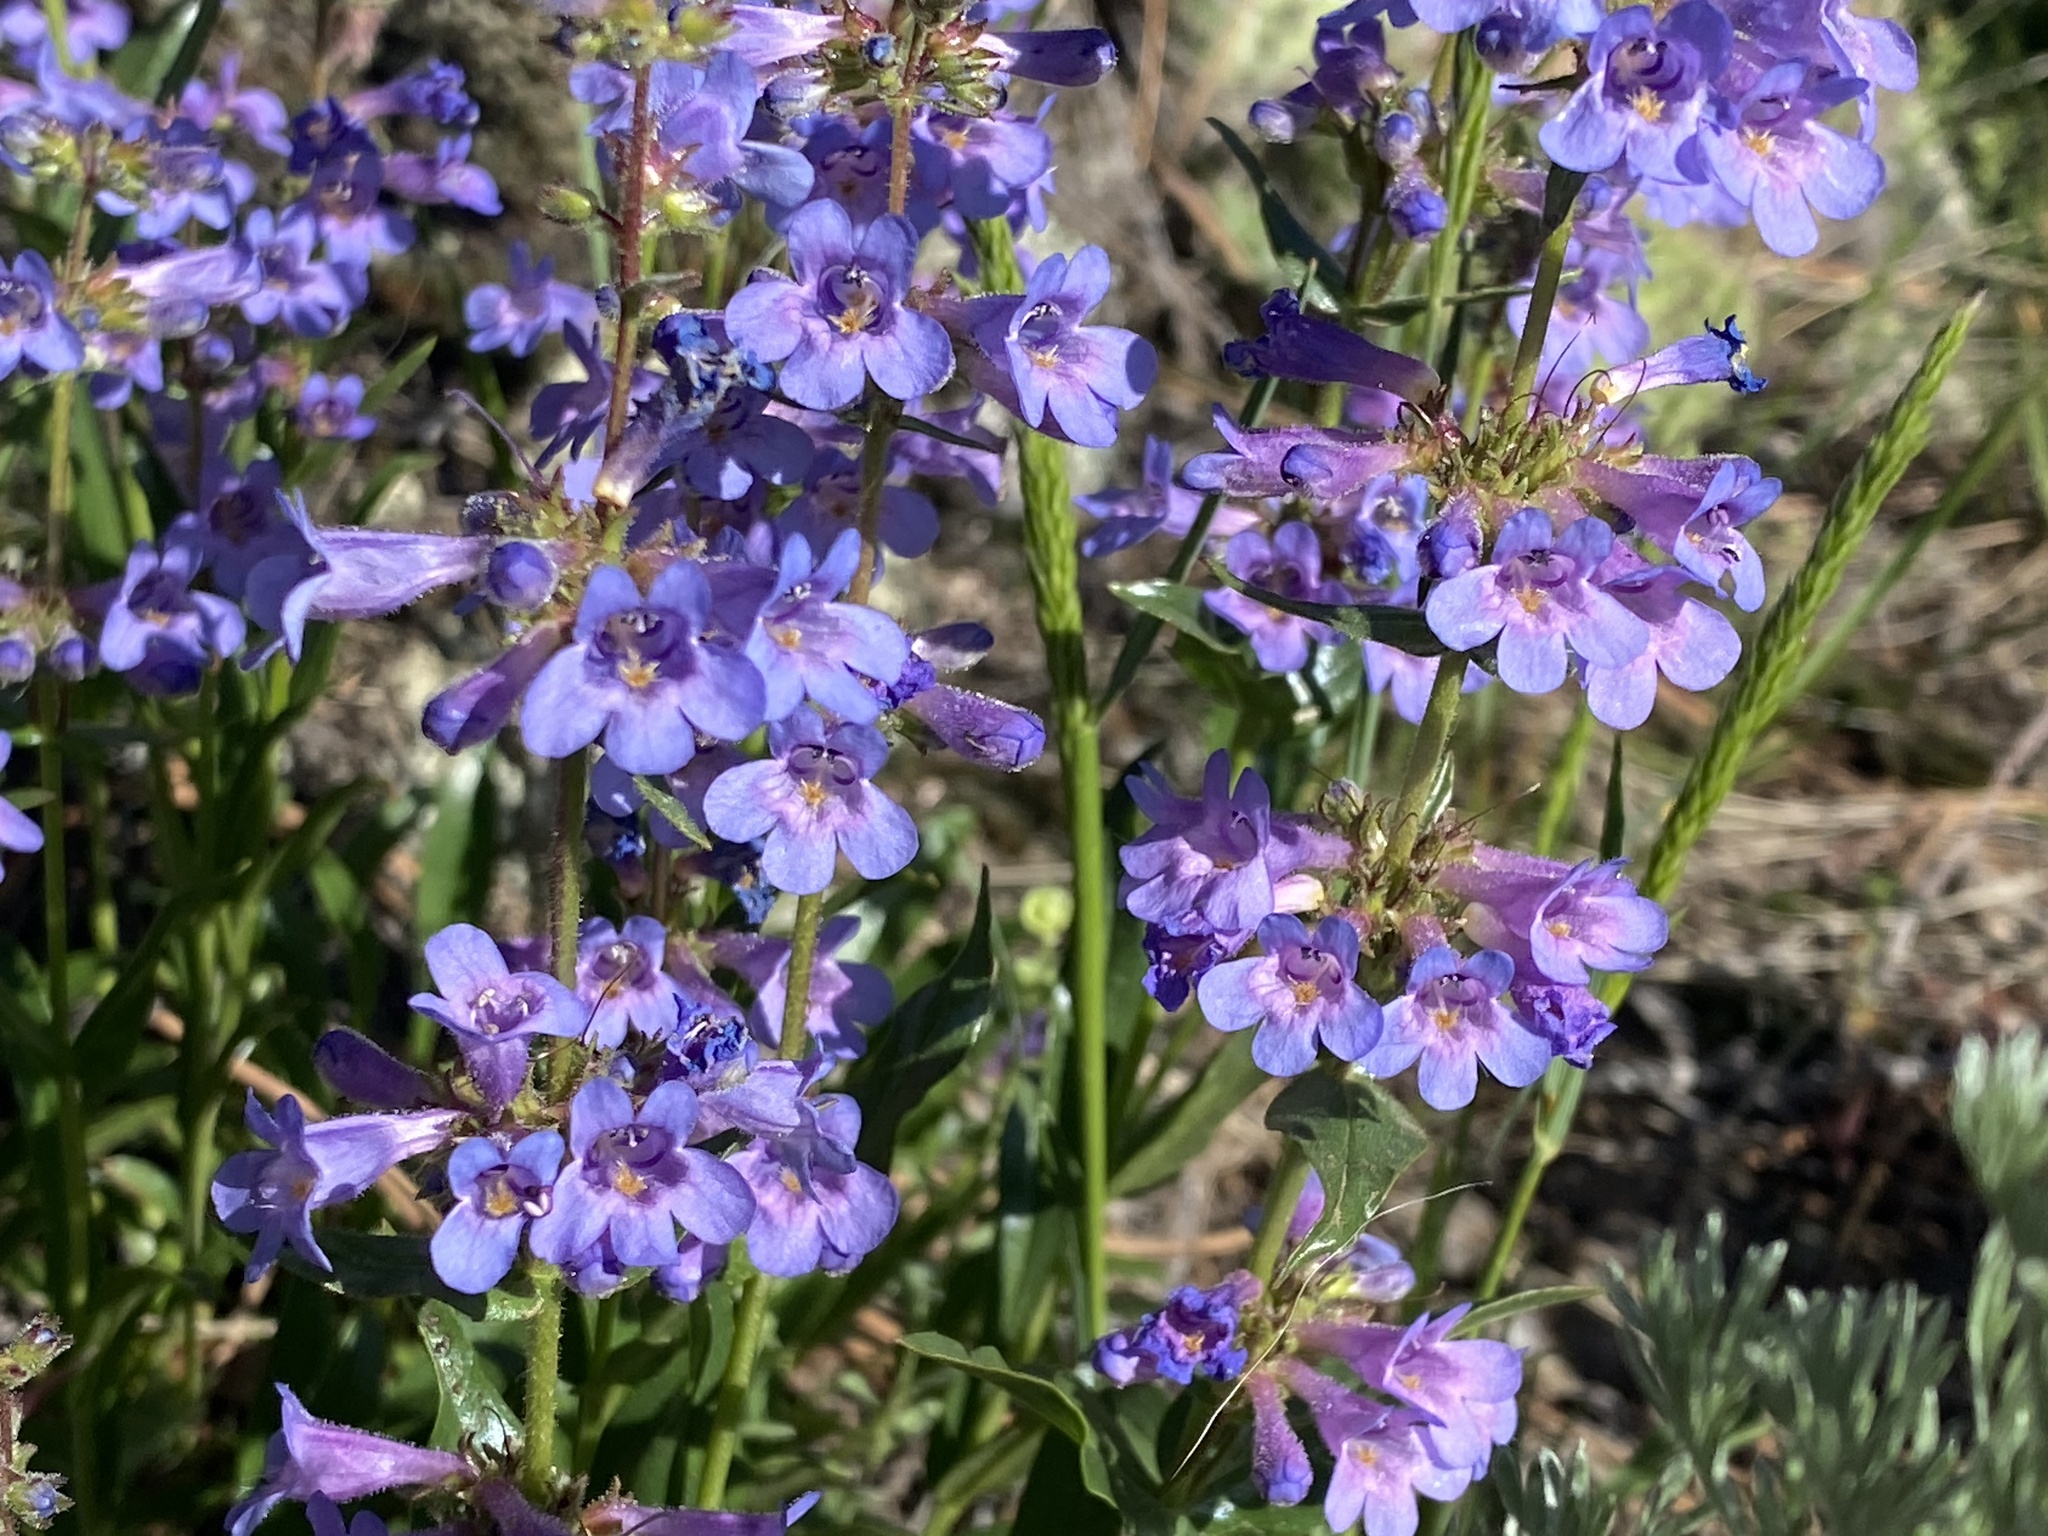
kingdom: Plantae
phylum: Tracheophyta
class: Magnoliopsida
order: Lamiales
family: Plantaginaceae
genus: Penstemon
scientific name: Penstemon virens
